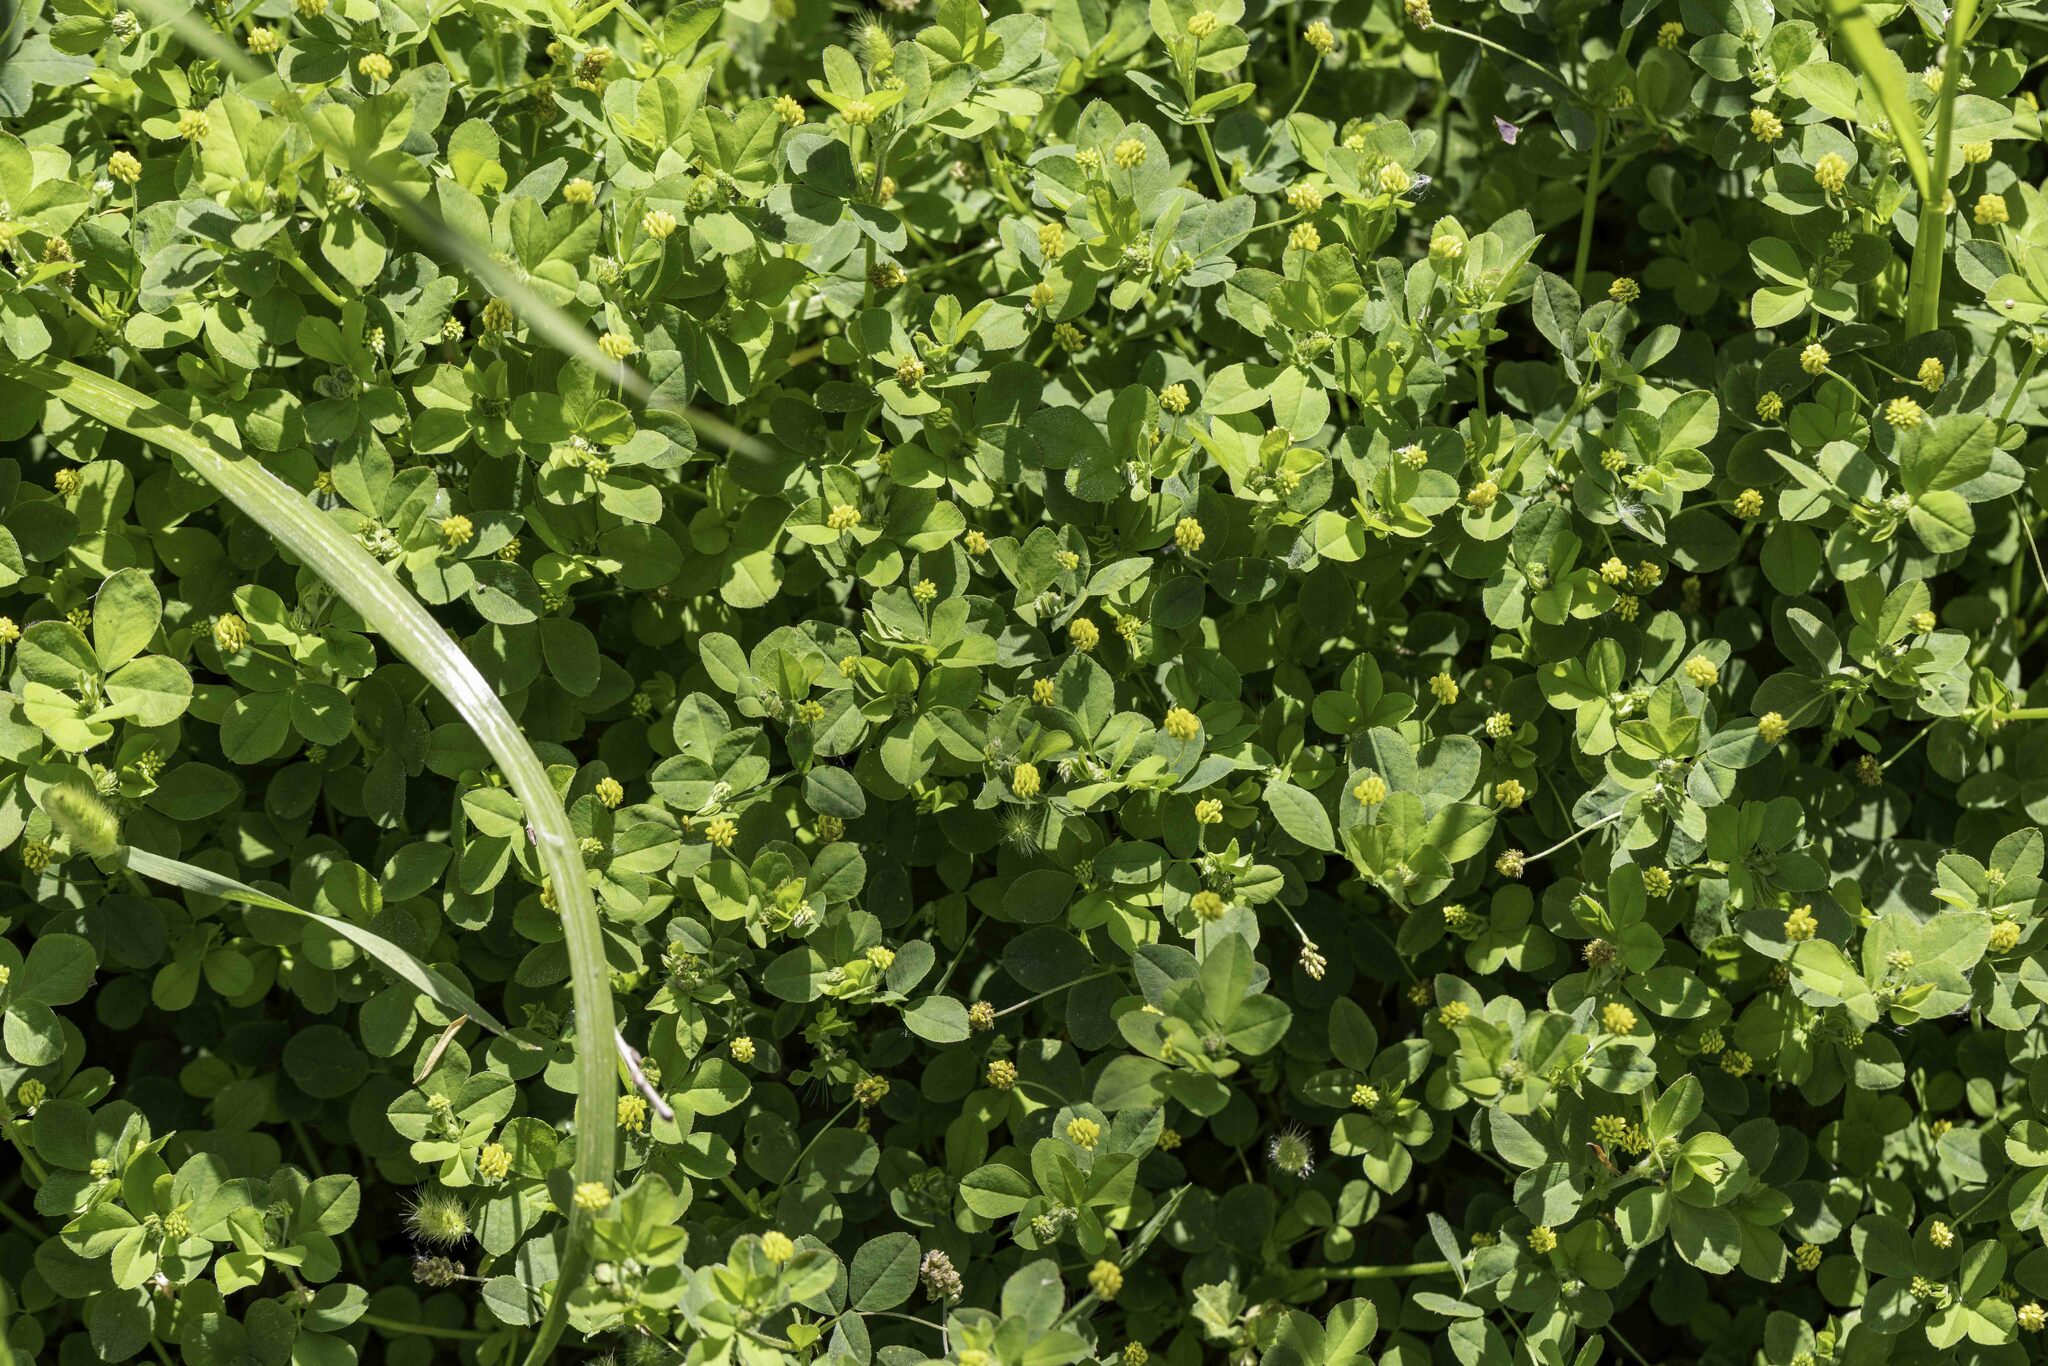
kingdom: Plantae
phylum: Tracheophyta
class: Magnoliopsida
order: Fabales
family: Fabaceae
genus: Medicago
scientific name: Medicago lupulina
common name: Black medick
